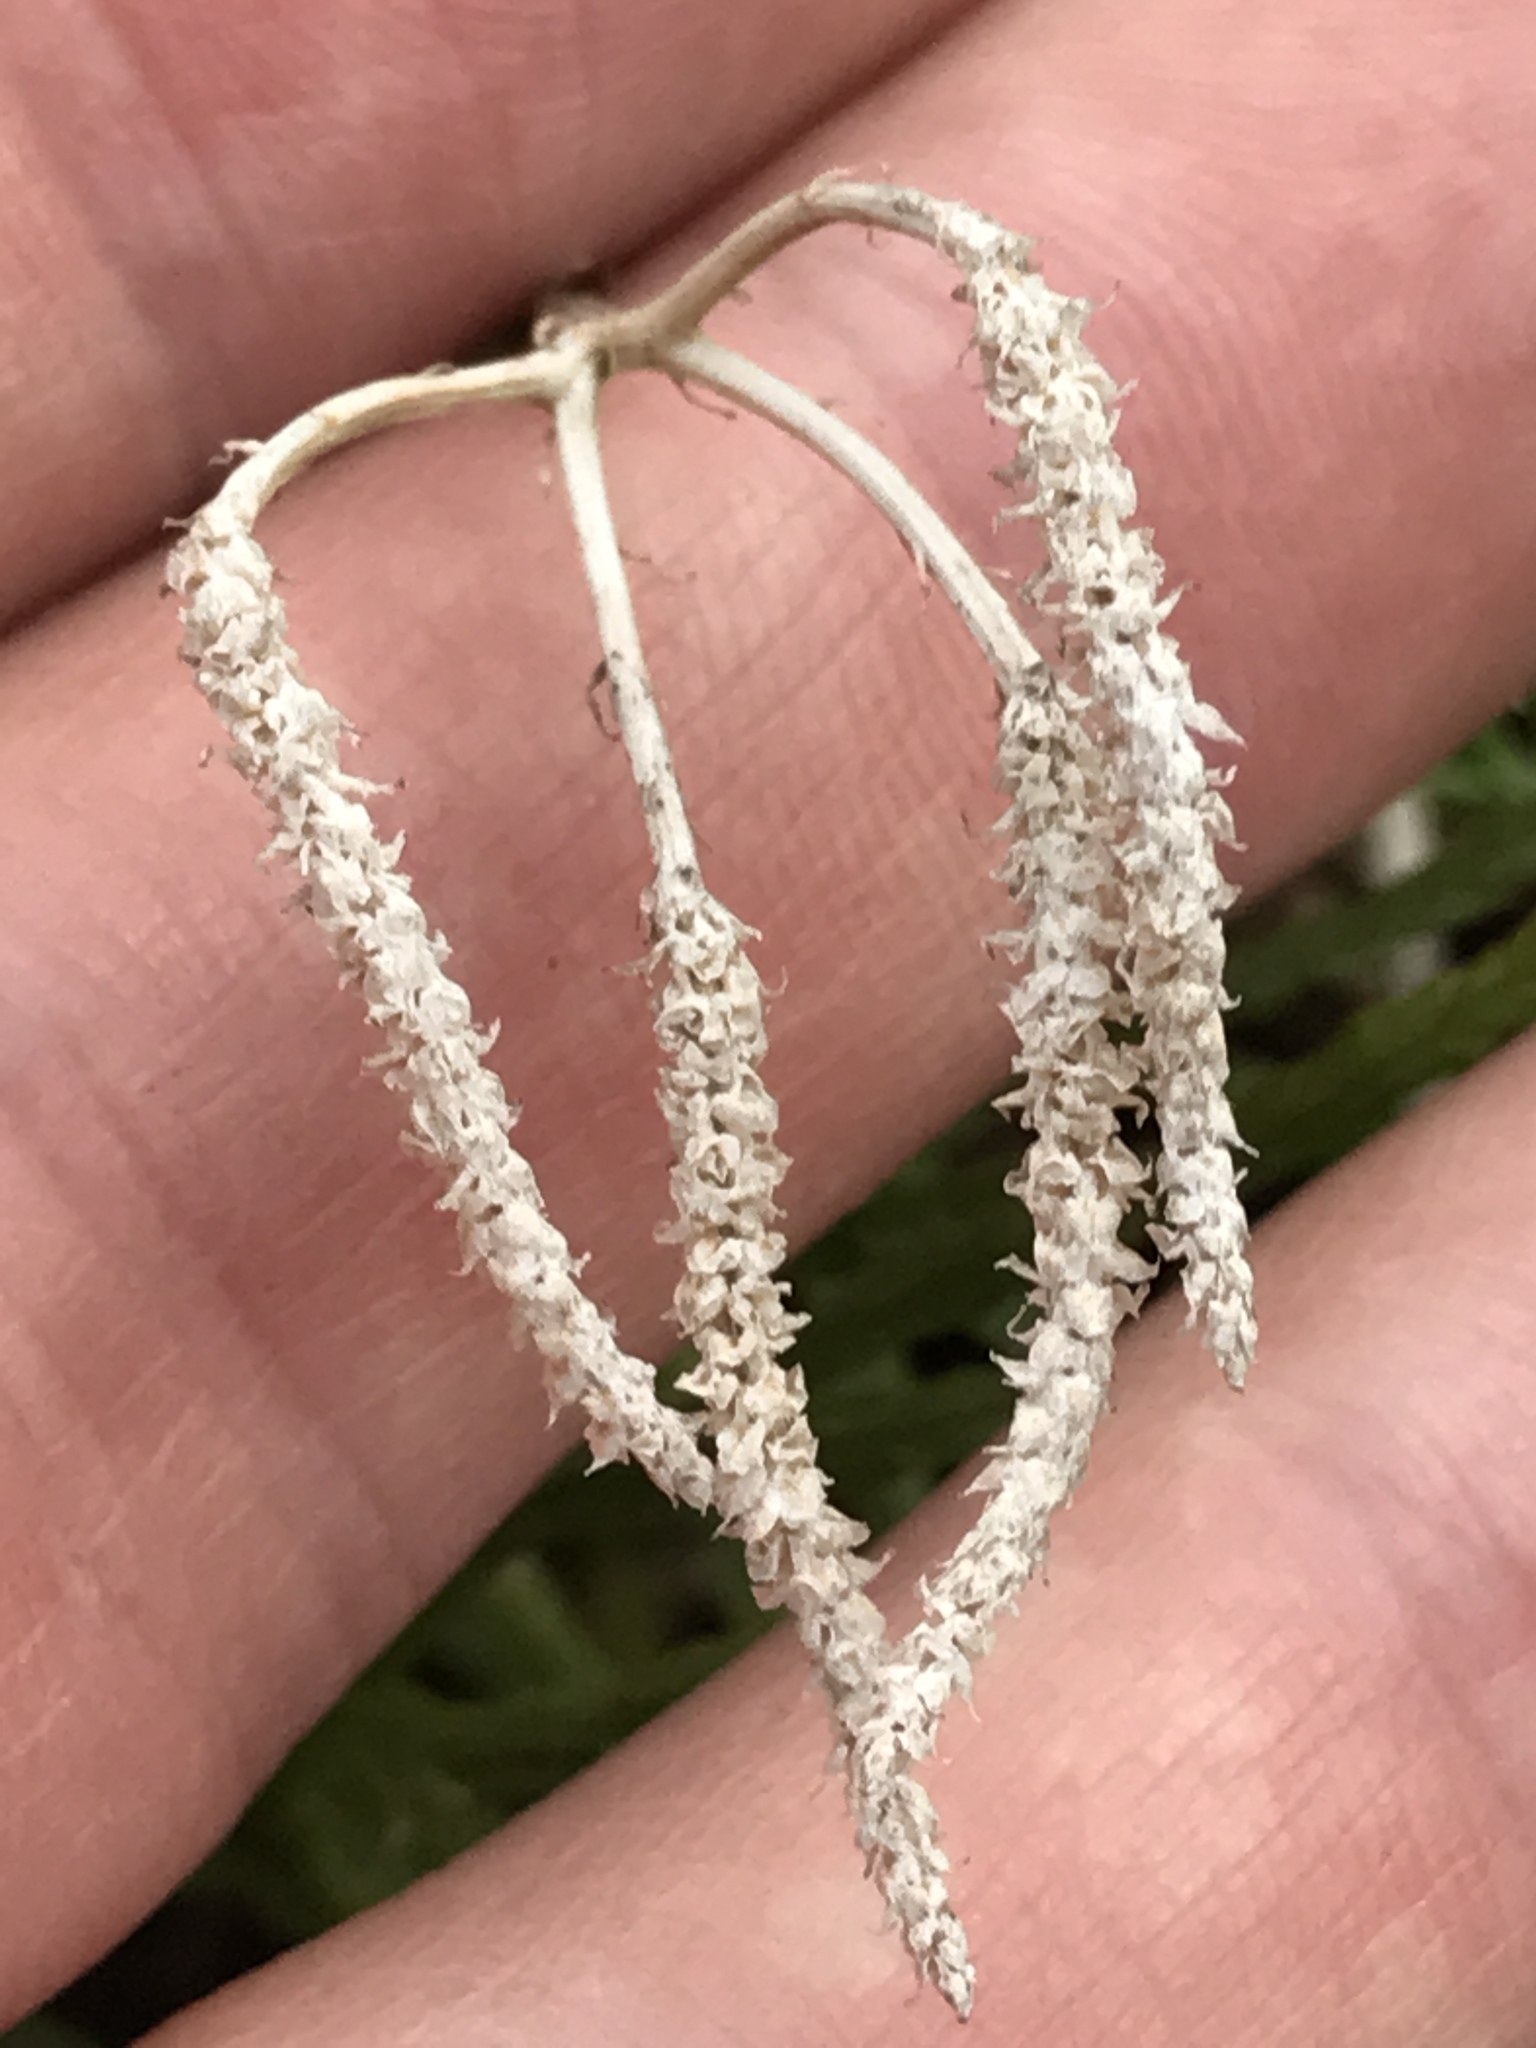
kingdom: Plantae
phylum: Tracheophyta
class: Lycopodiopsida
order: Lycopodiales
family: Lycopodiaceae
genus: Diphasiastrum
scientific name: Diphasiastrum digitatum
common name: Southern running-pine
